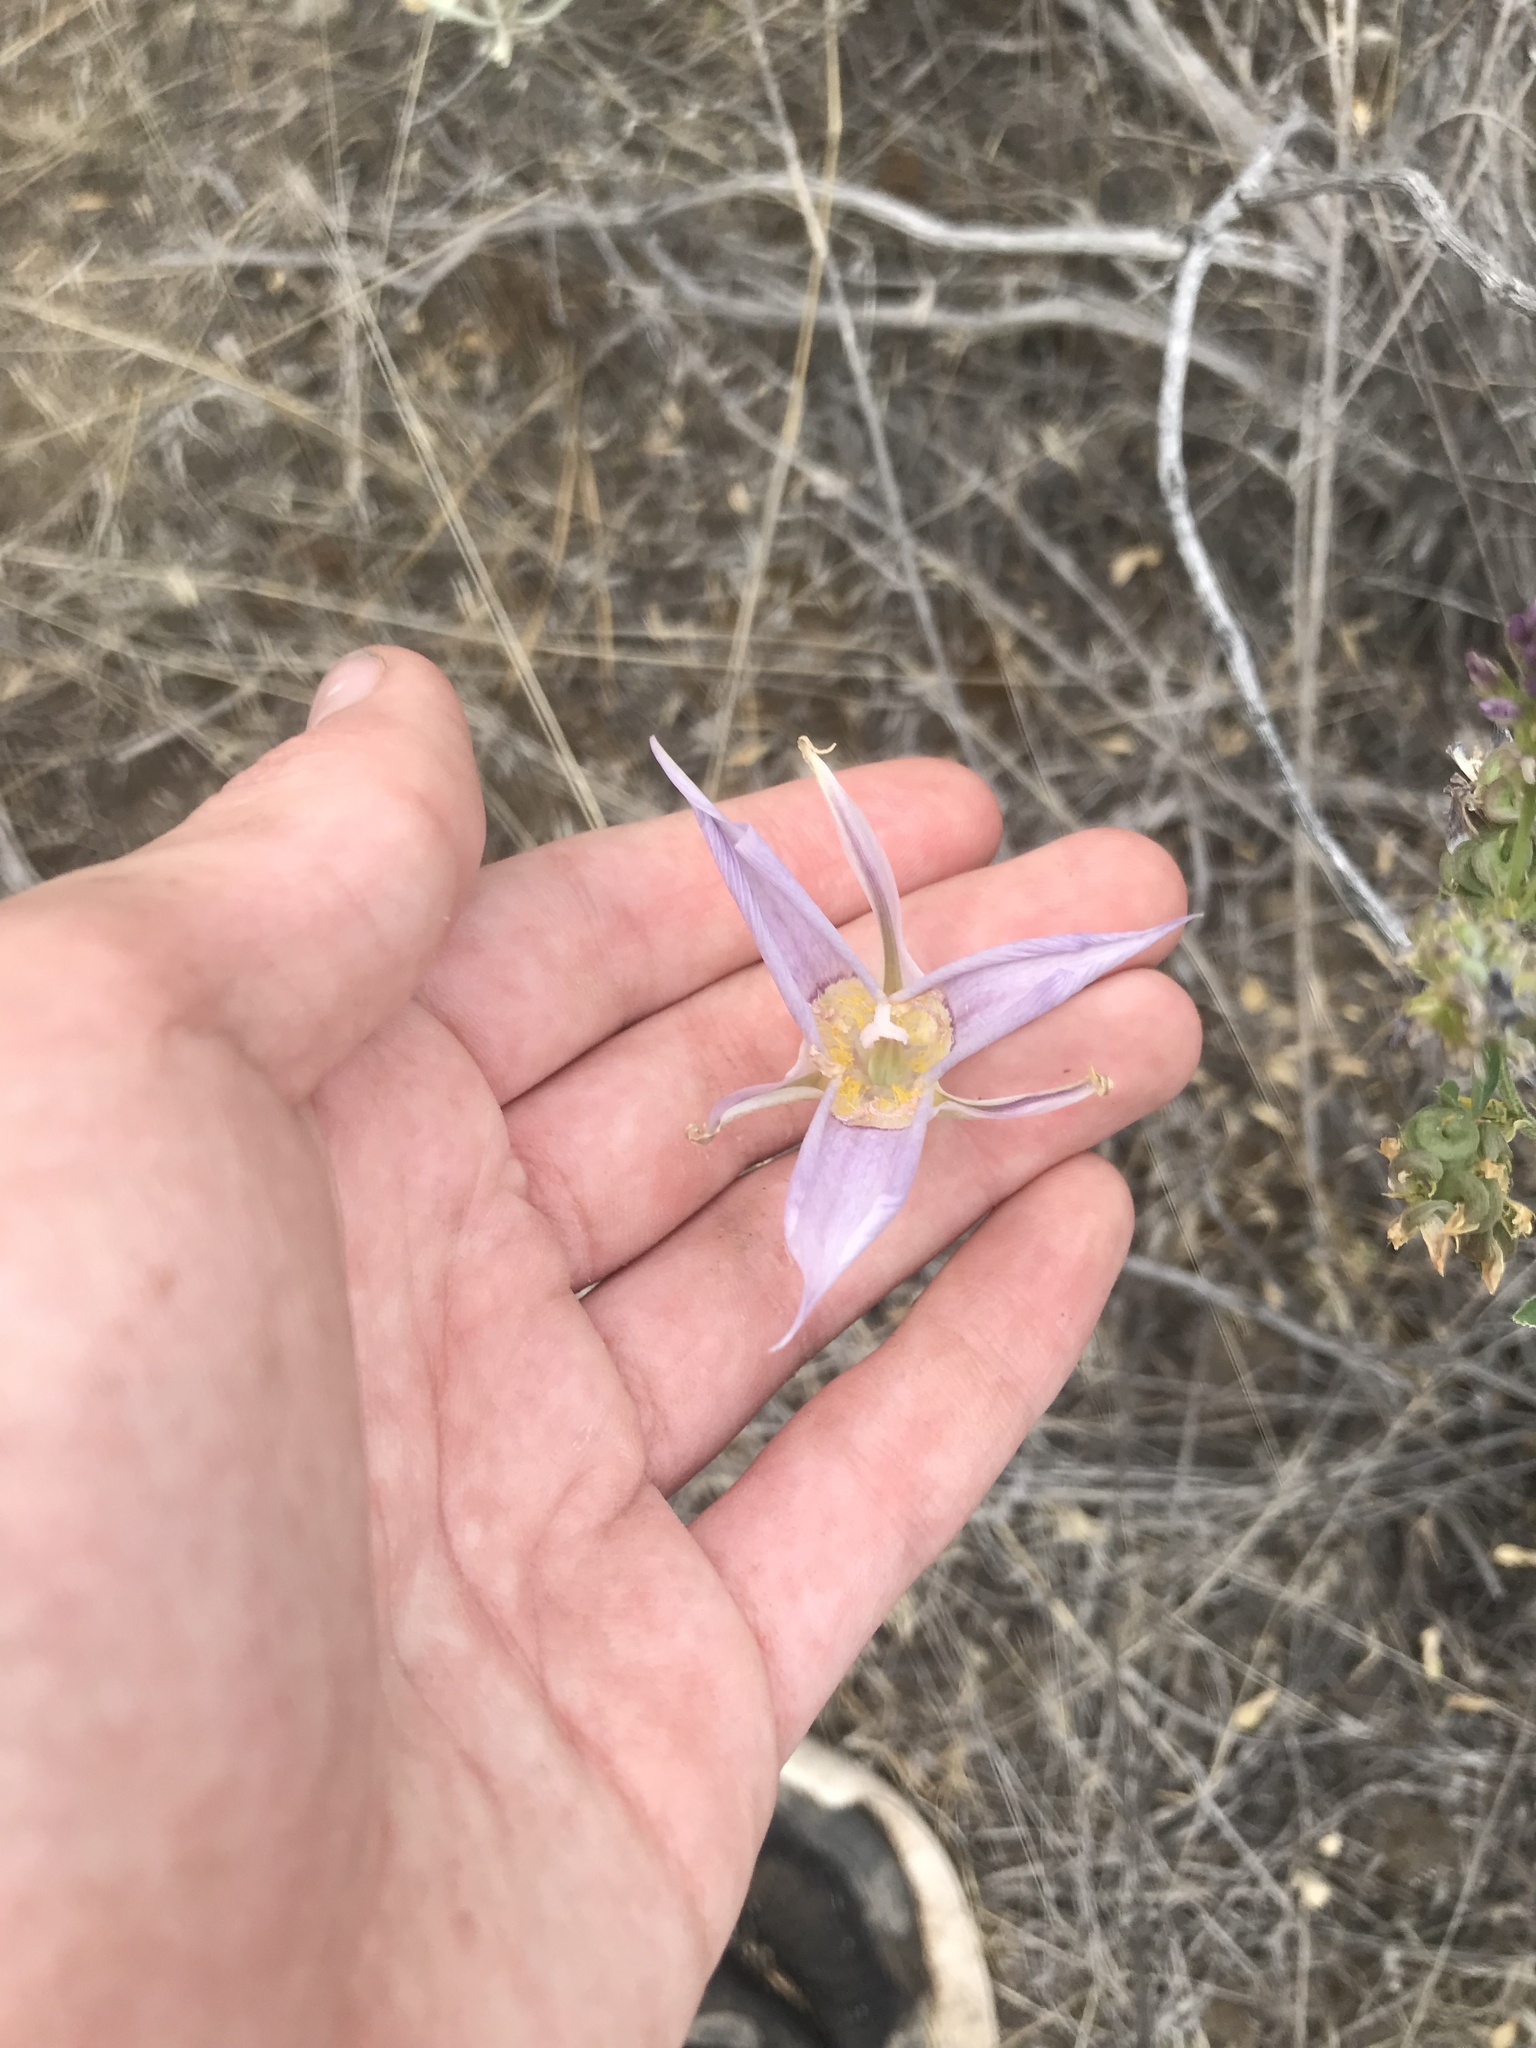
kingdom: Plantae
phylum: Tracheophyta
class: Liliopsida
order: Liliales
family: Liliaceae
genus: Calochortus
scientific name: Calochortus macrocarpus
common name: Green-band mariposa lily
